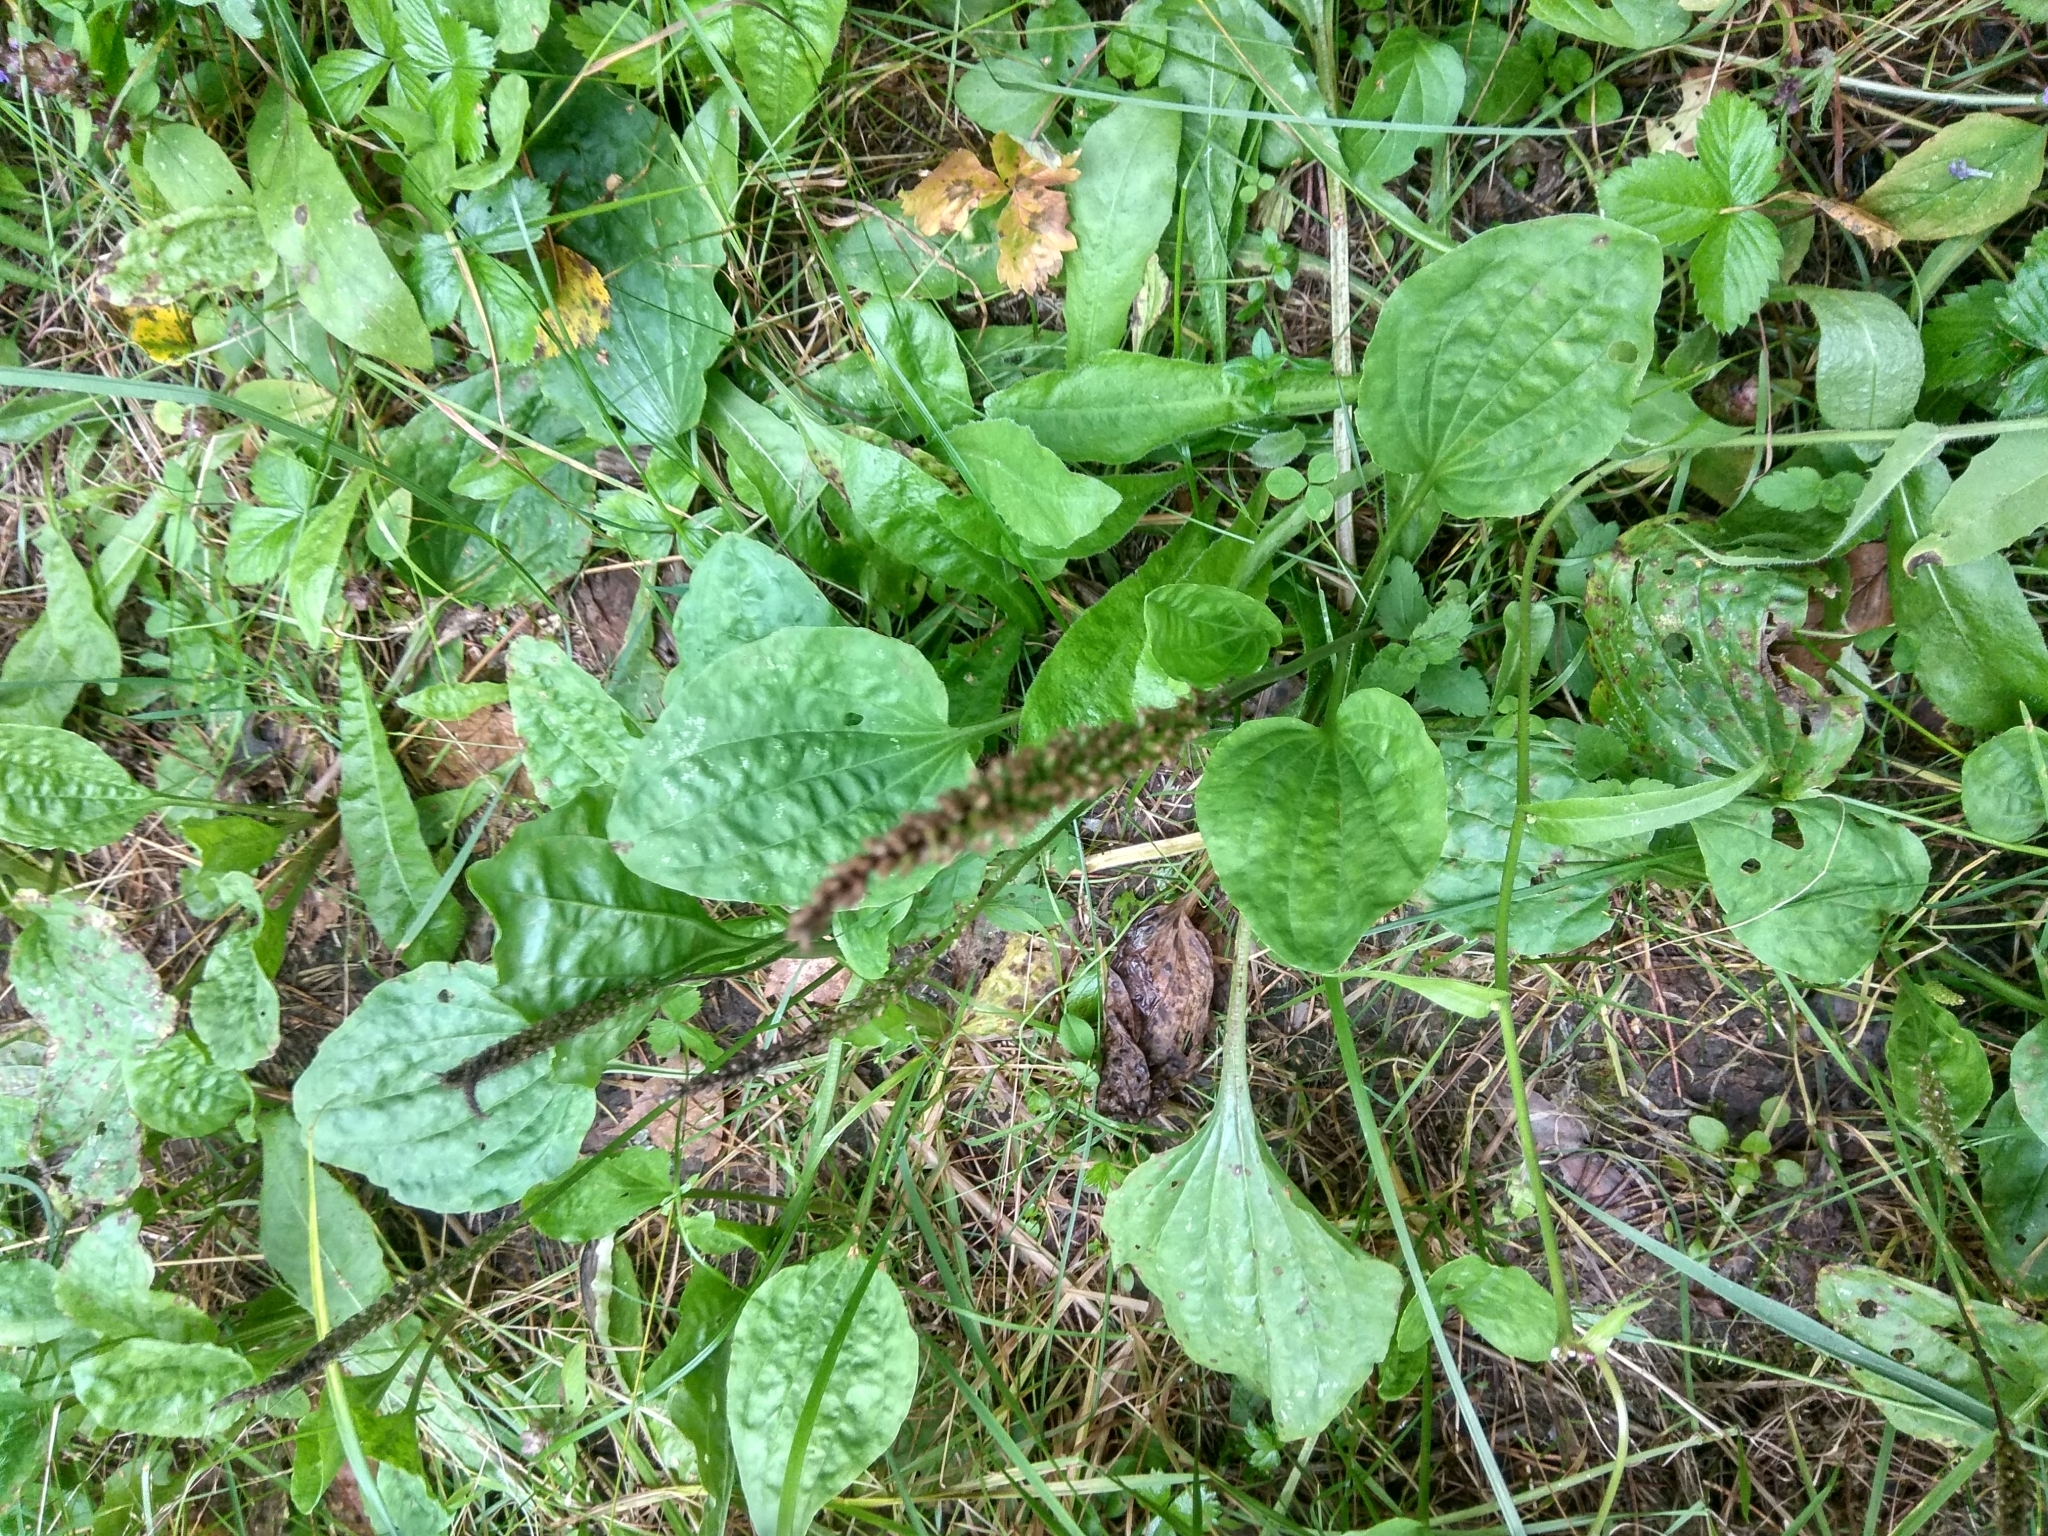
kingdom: Plantae
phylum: Tracheophyta
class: Magnoliopsida
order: Lamiales
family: Plantaginaceae
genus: Plantago
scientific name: Plantago major
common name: Common plantain
